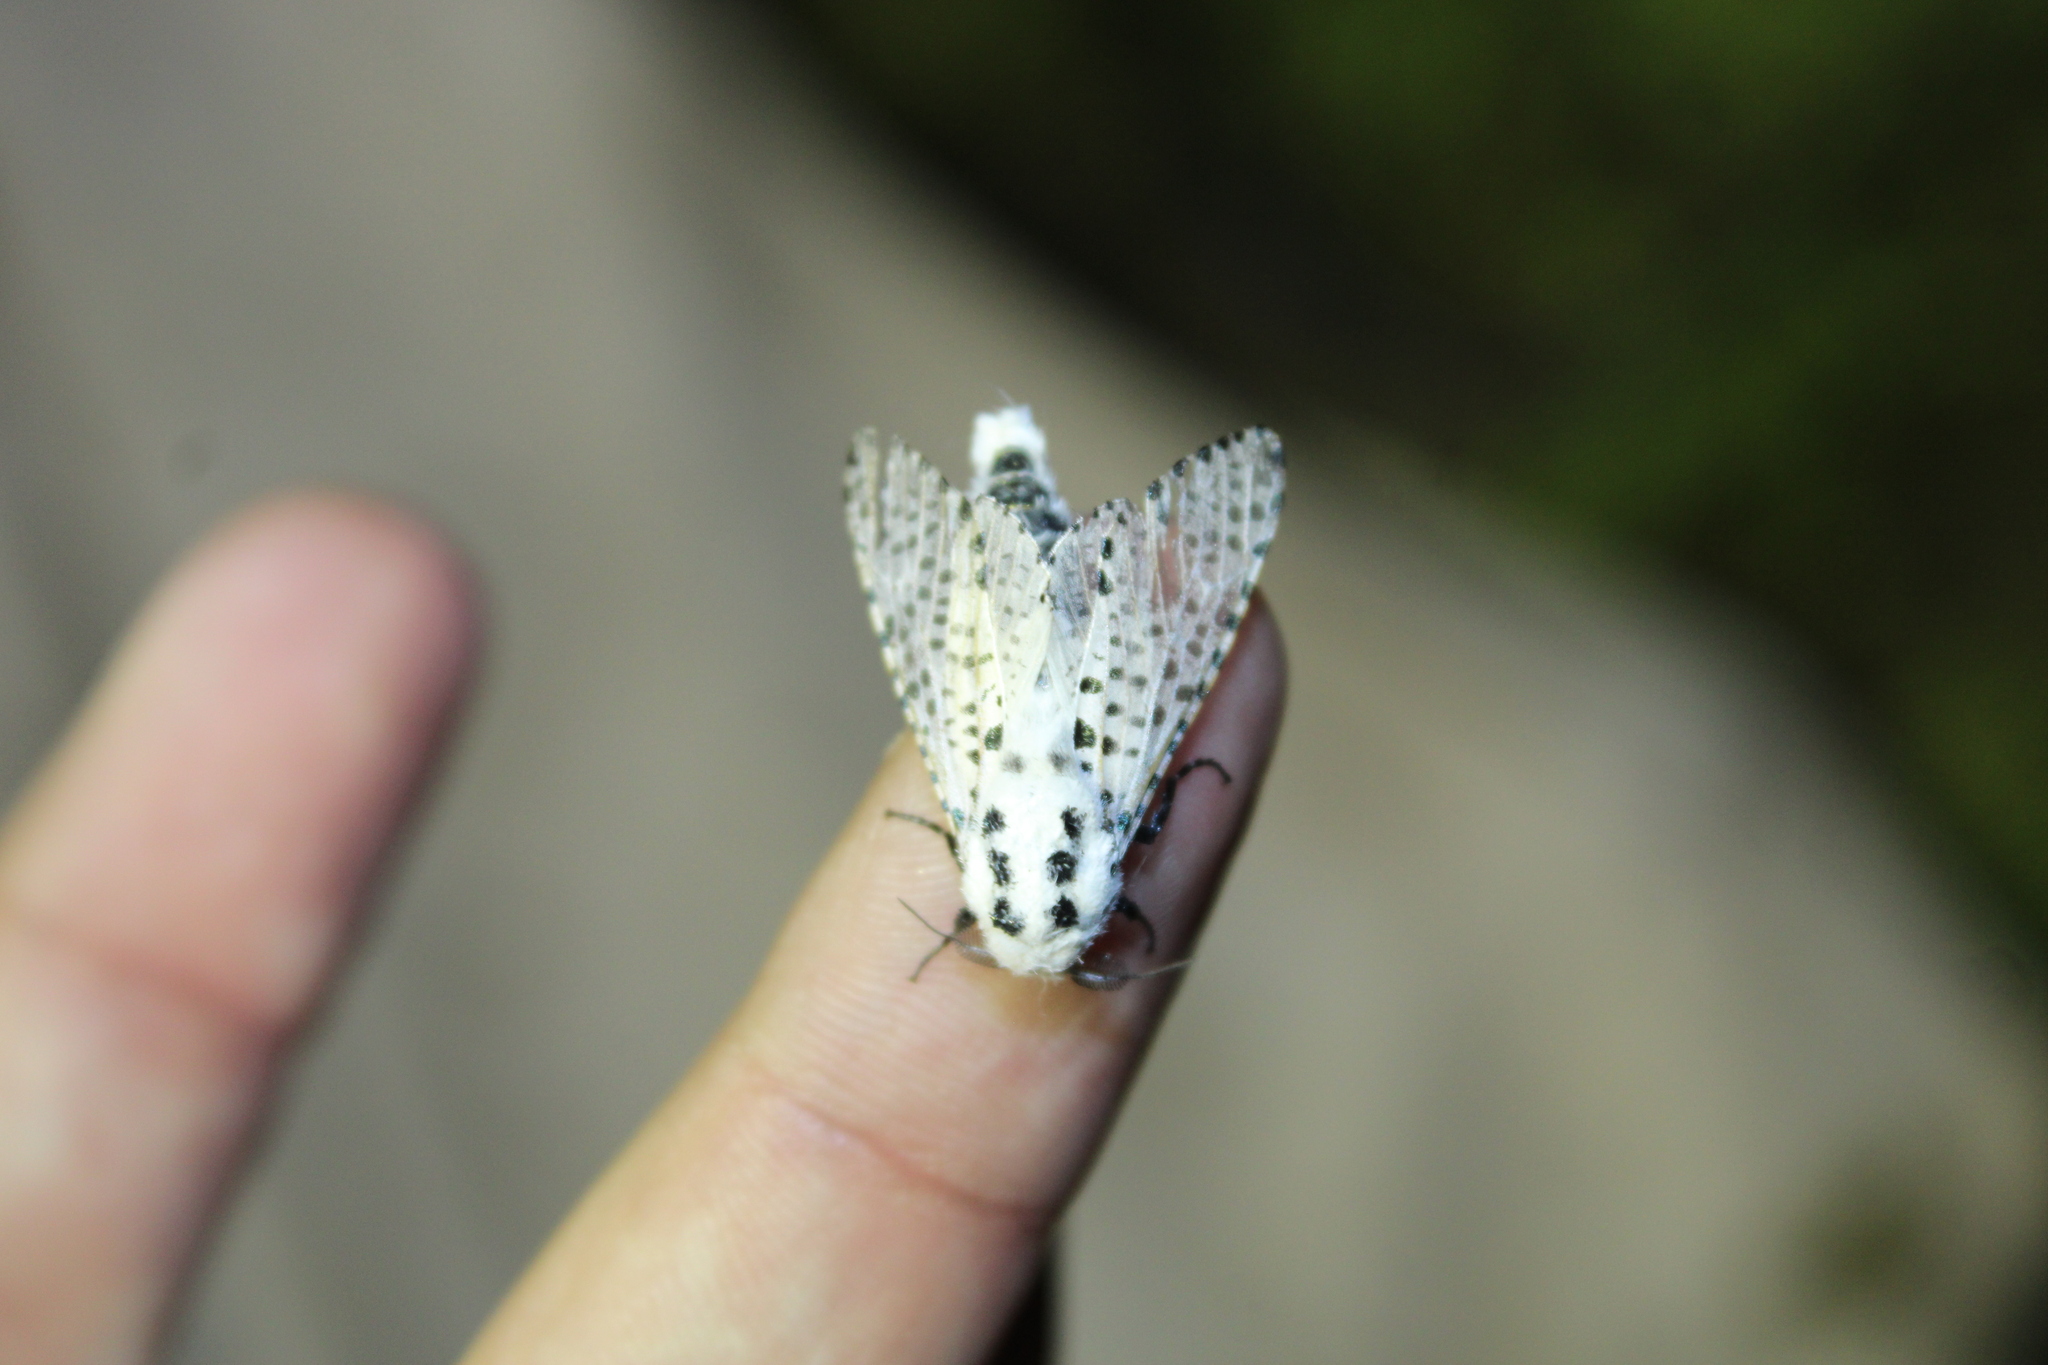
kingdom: Animalia
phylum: Arthropoda
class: Insecta
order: Lepidoptera
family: Cossidae
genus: Zeuzera
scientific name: Zeuzera pyrina
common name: Leopard moth
